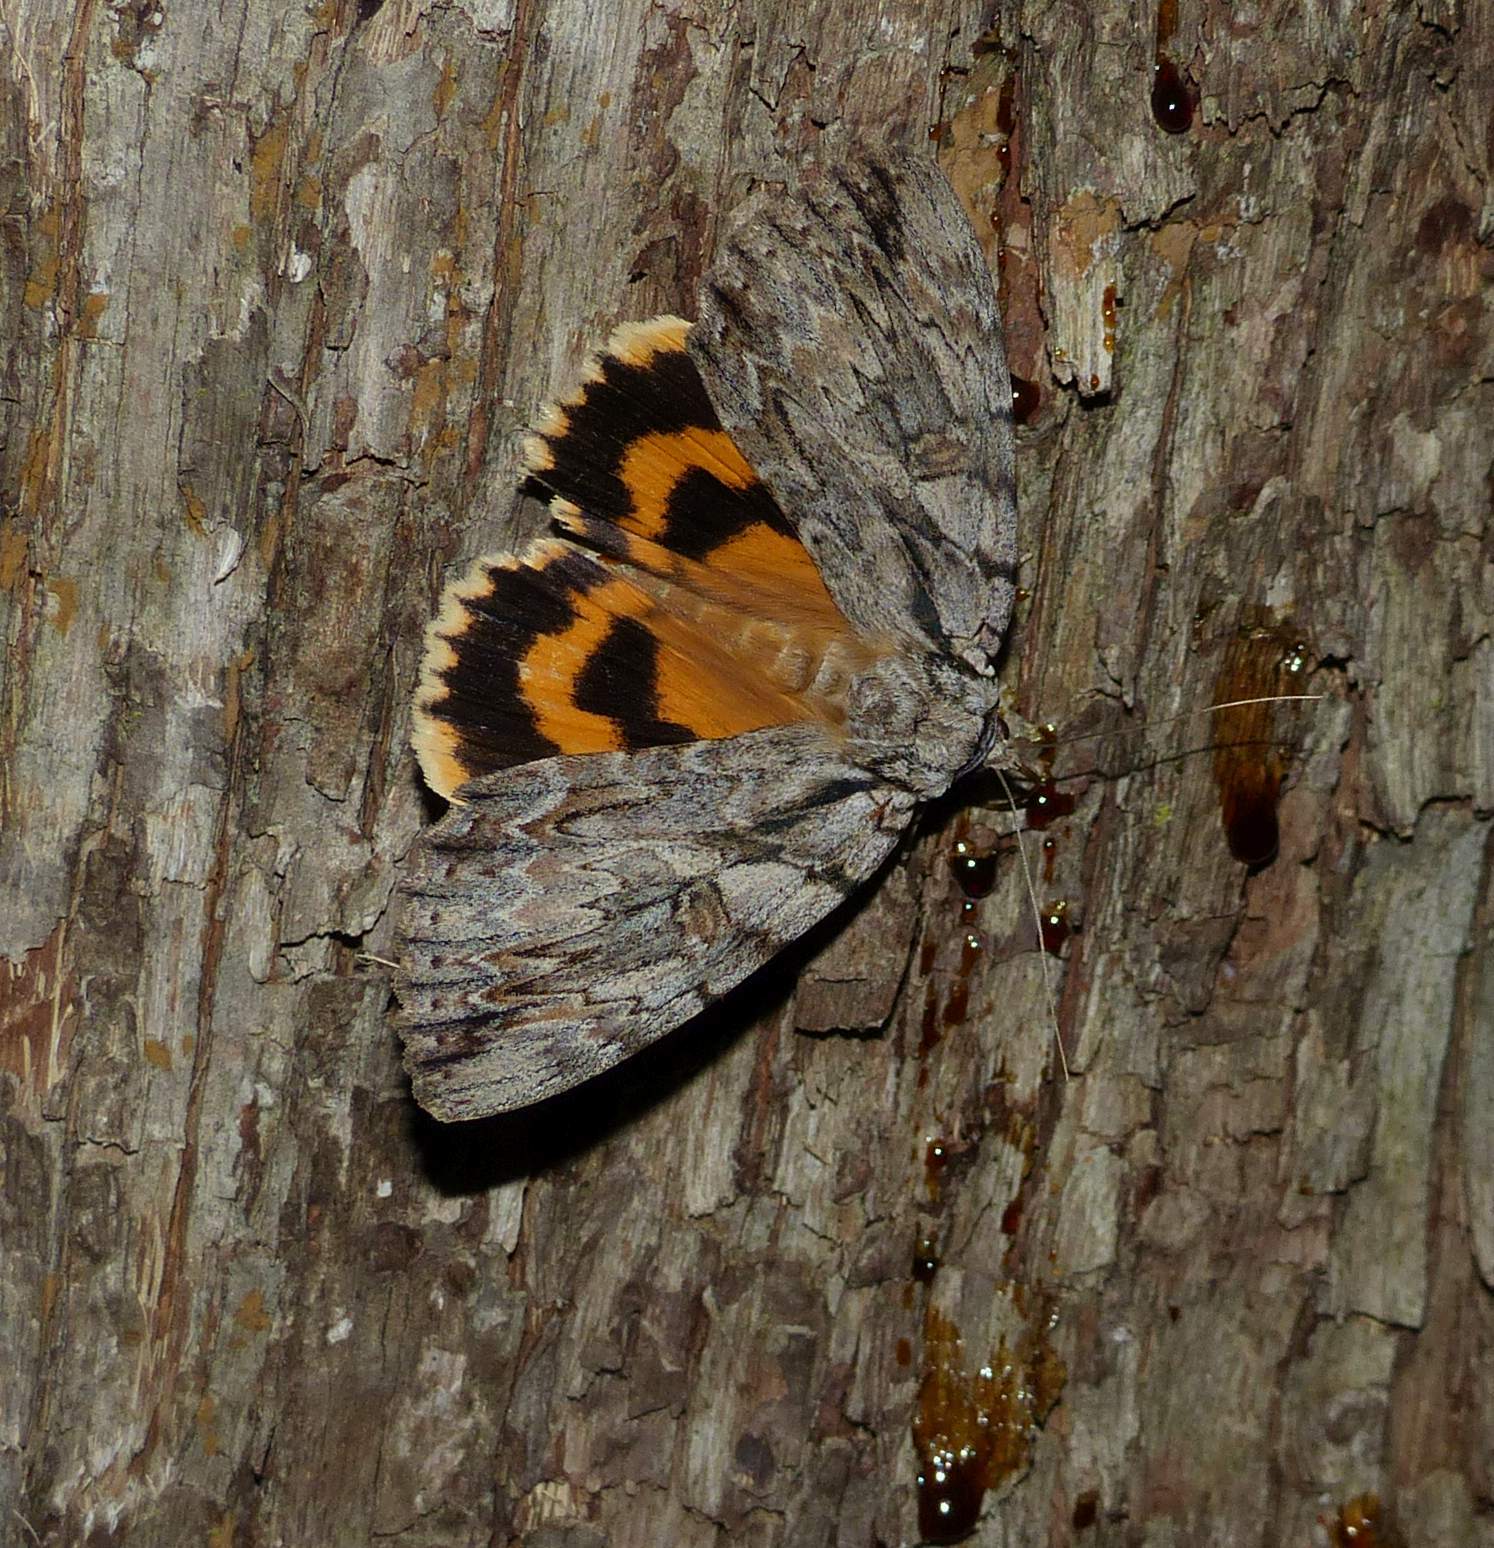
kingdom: Animalia
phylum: Arthropoda
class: Insecta
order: Lepidoptera
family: Erebidae
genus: Catocala
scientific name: Catocala subnata
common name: Youthful underwing
